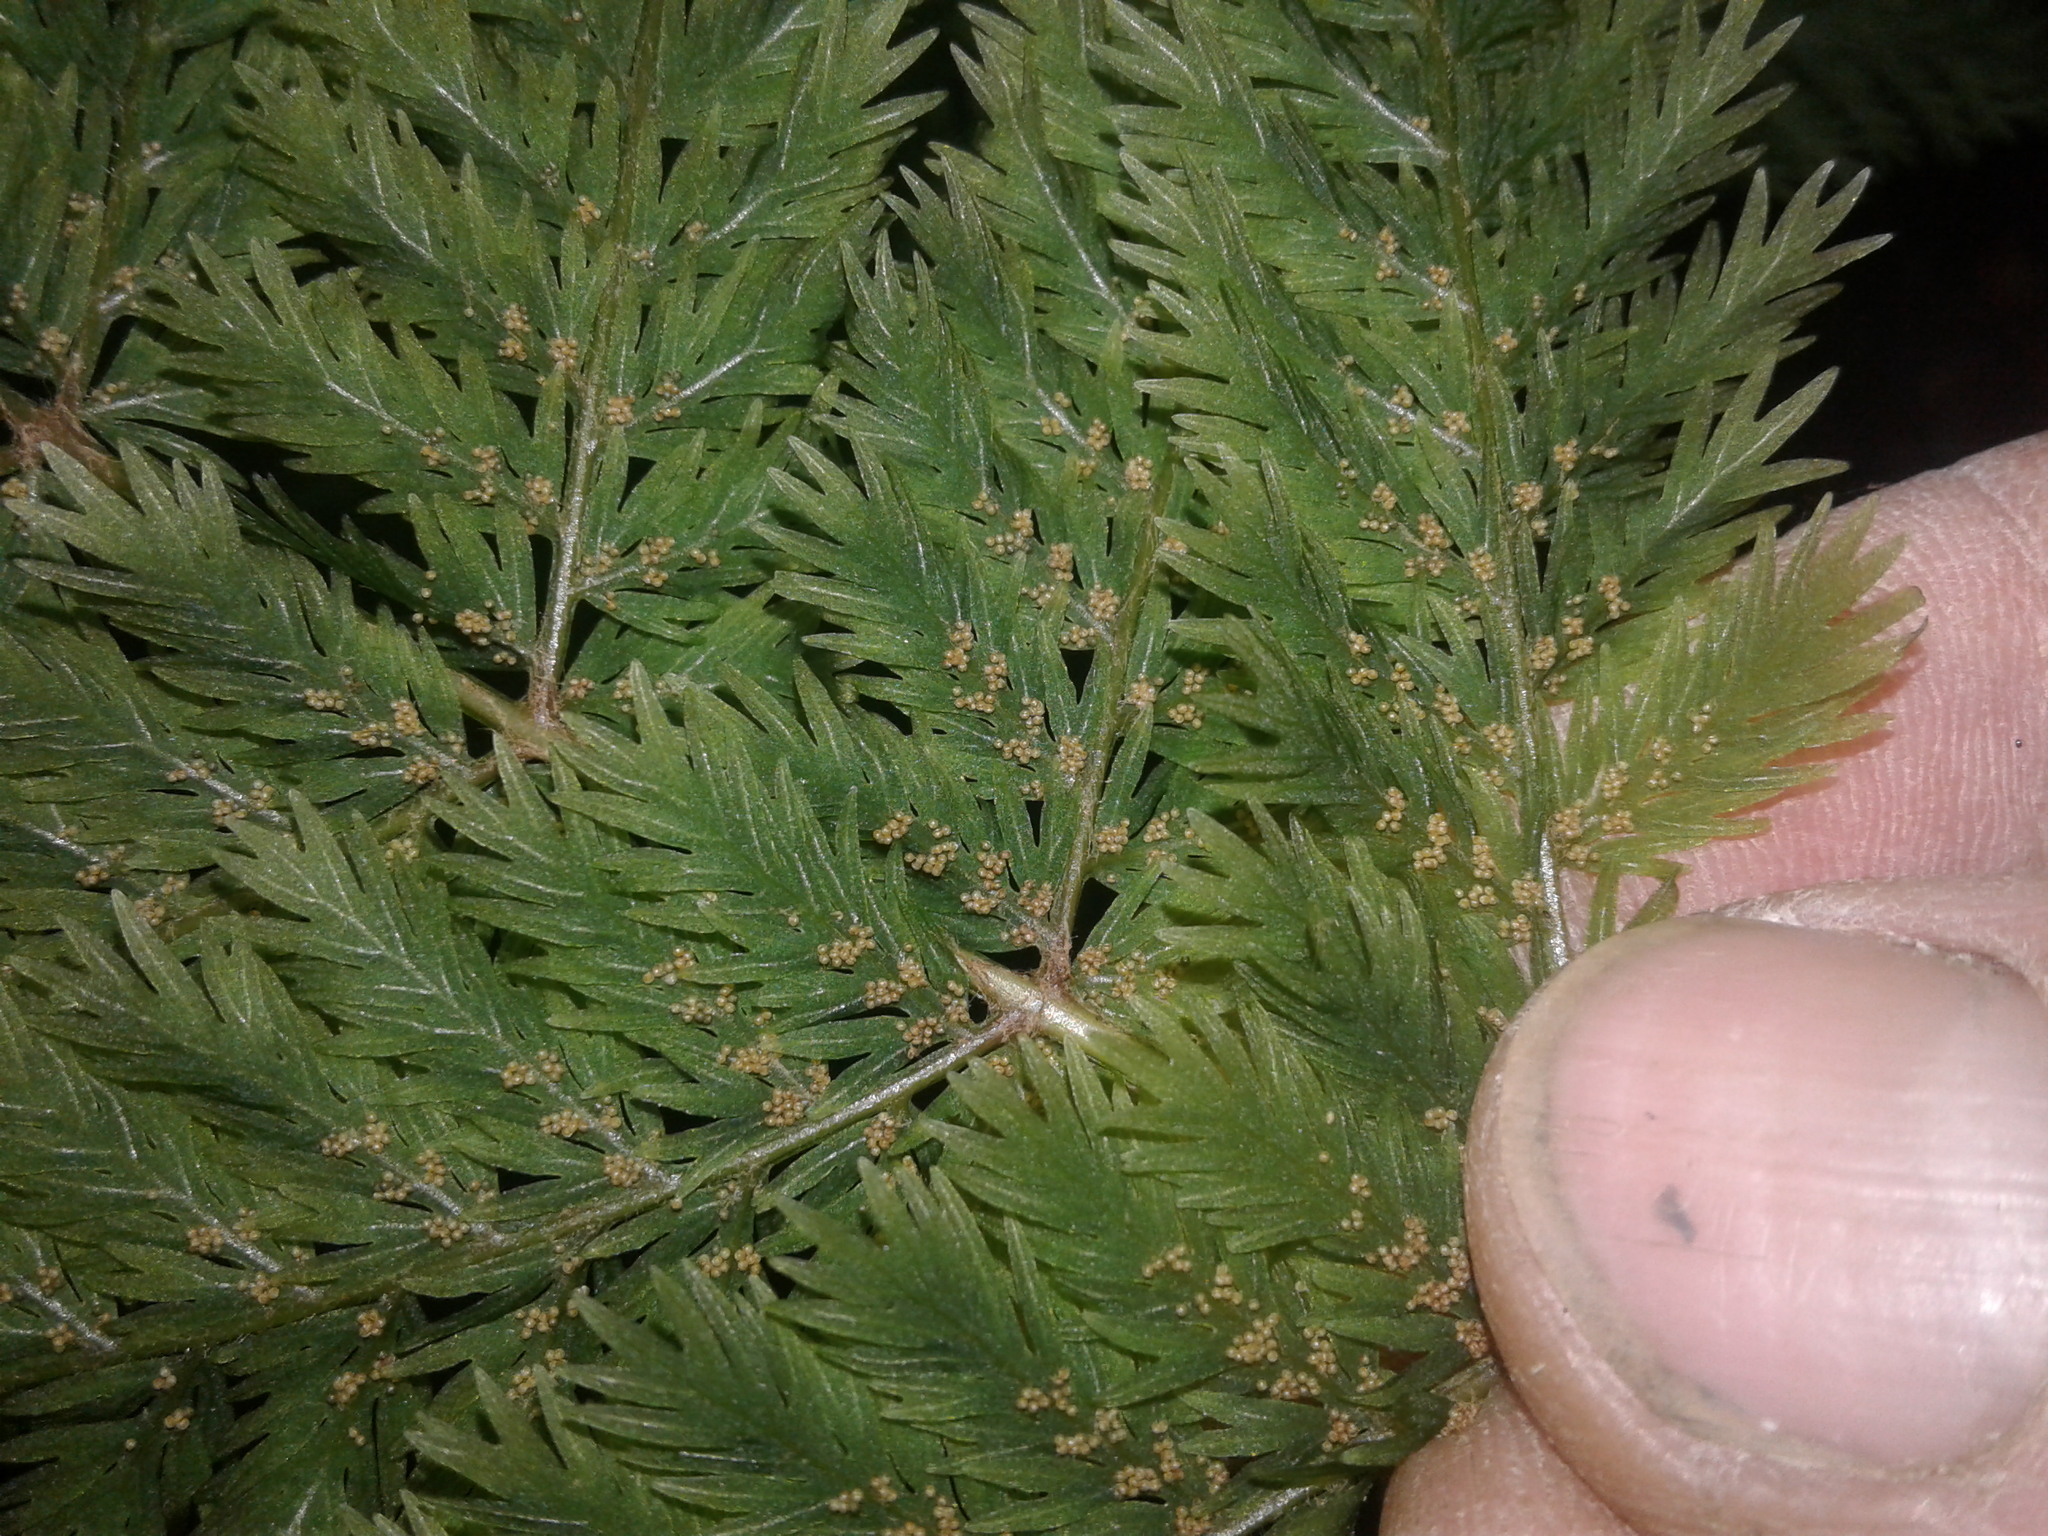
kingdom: Plantae
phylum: Tracheophyta
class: Polypodiopsida
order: Osmundales
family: Osmundaceae
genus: Leptopteris
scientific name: Leptopteris hymenophylloides
